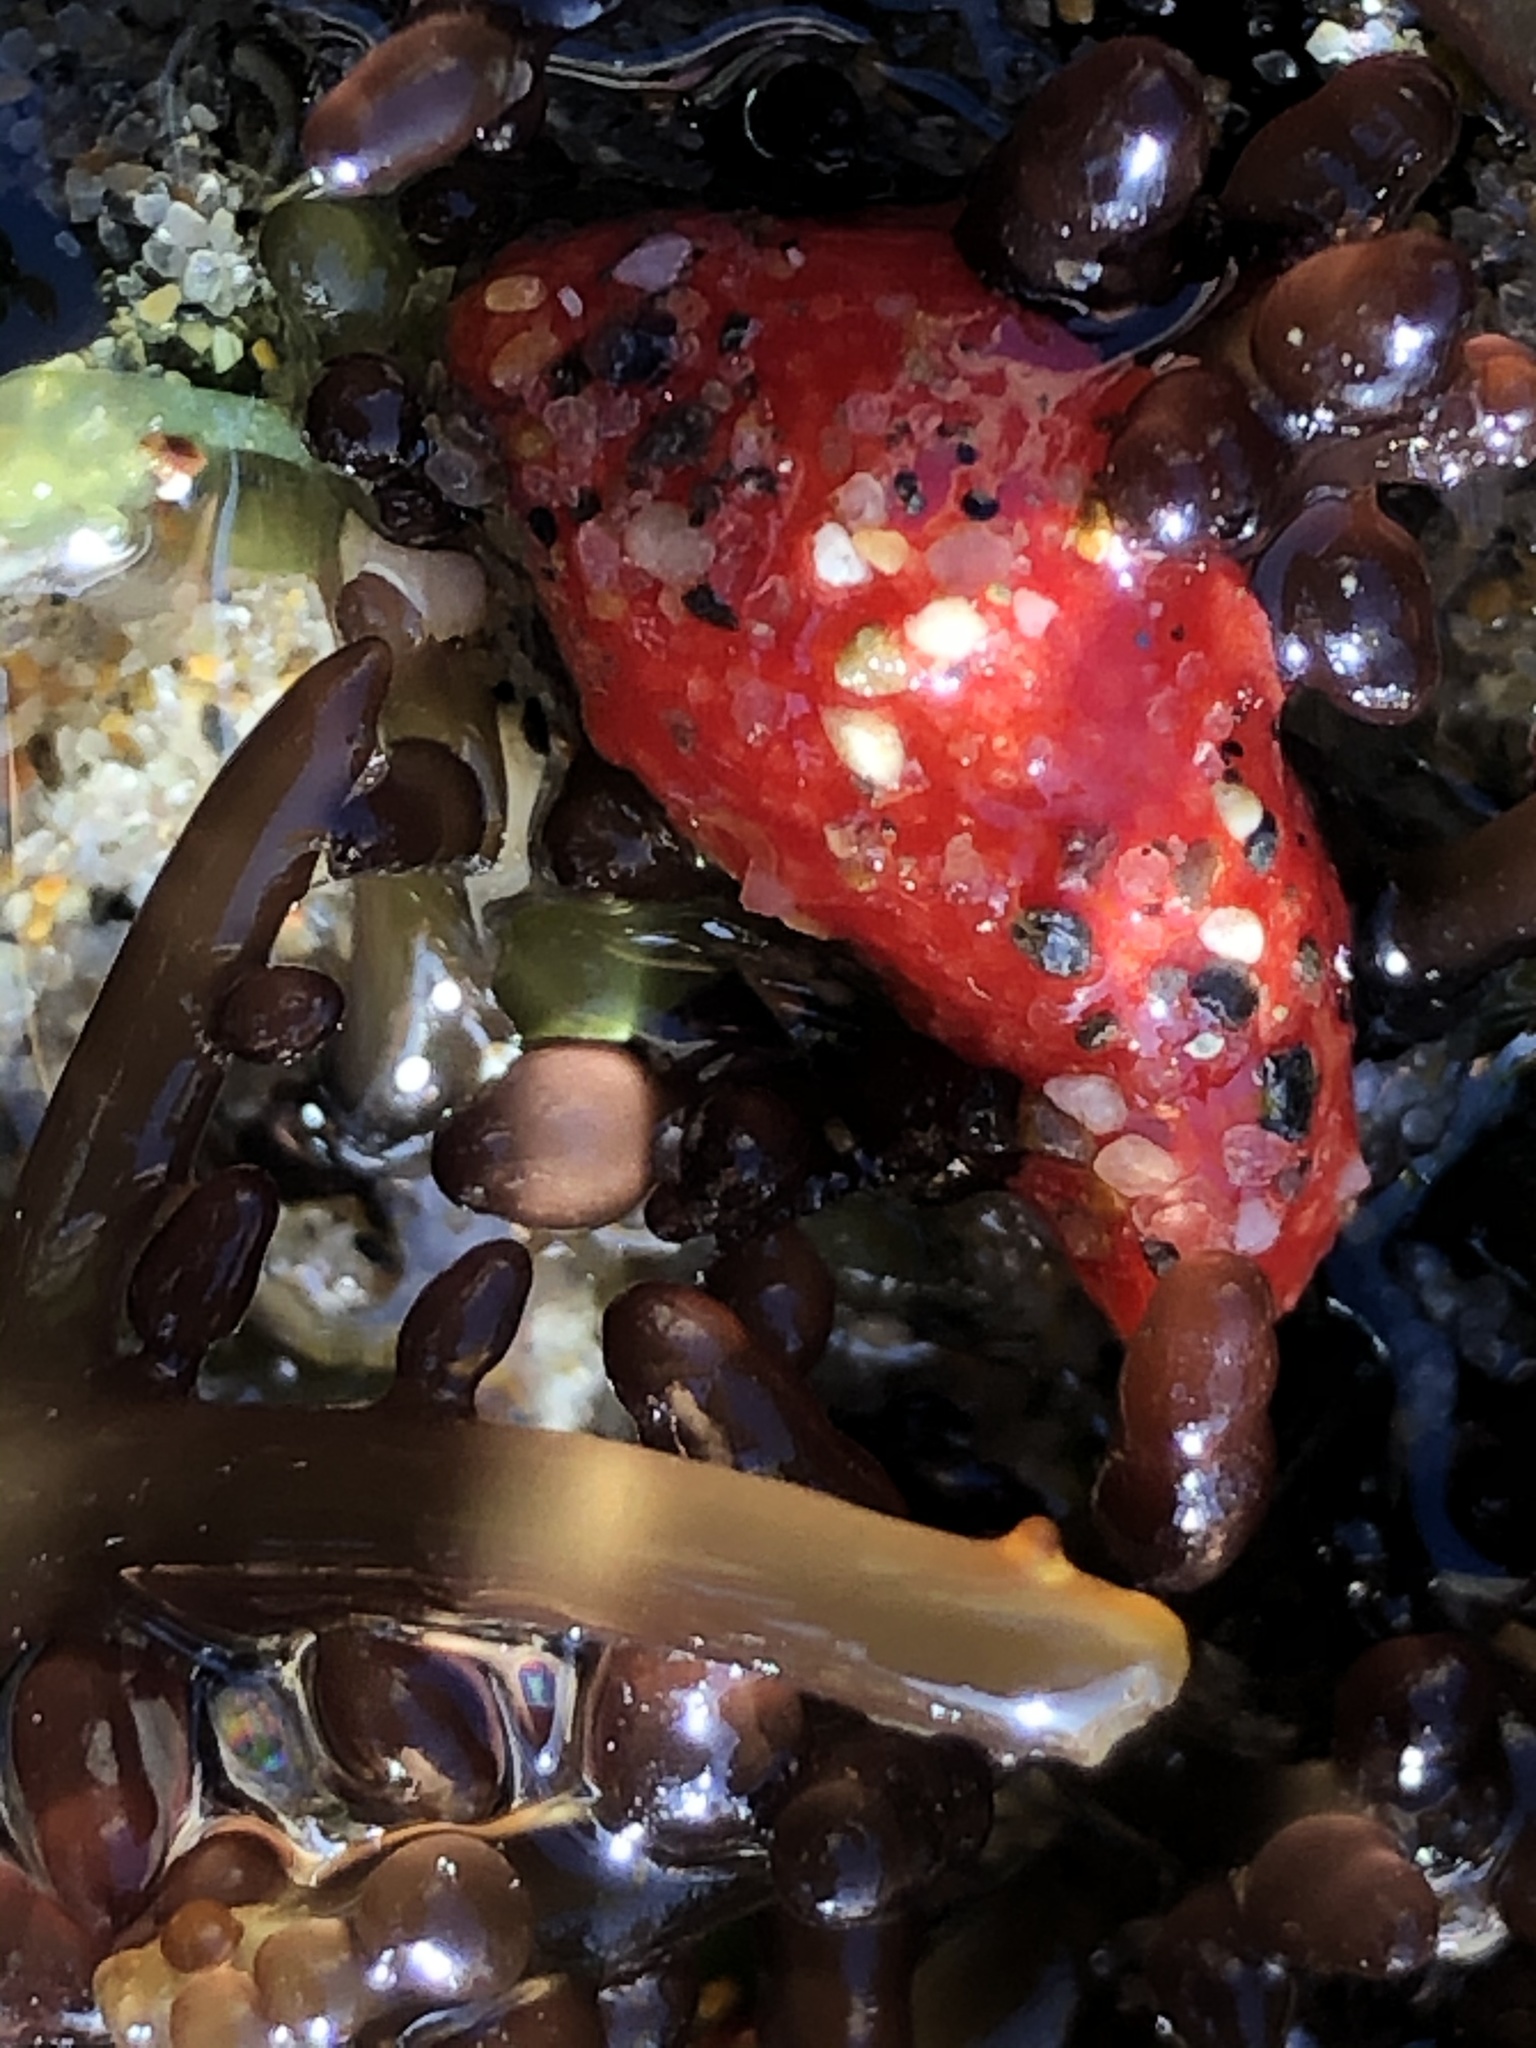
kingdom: Animalia
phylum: Echinodermata
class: Holothuroidea
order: Dendrochirotida
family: Psolidae
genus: Lissothuria
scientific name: Lissothuria nutriens
